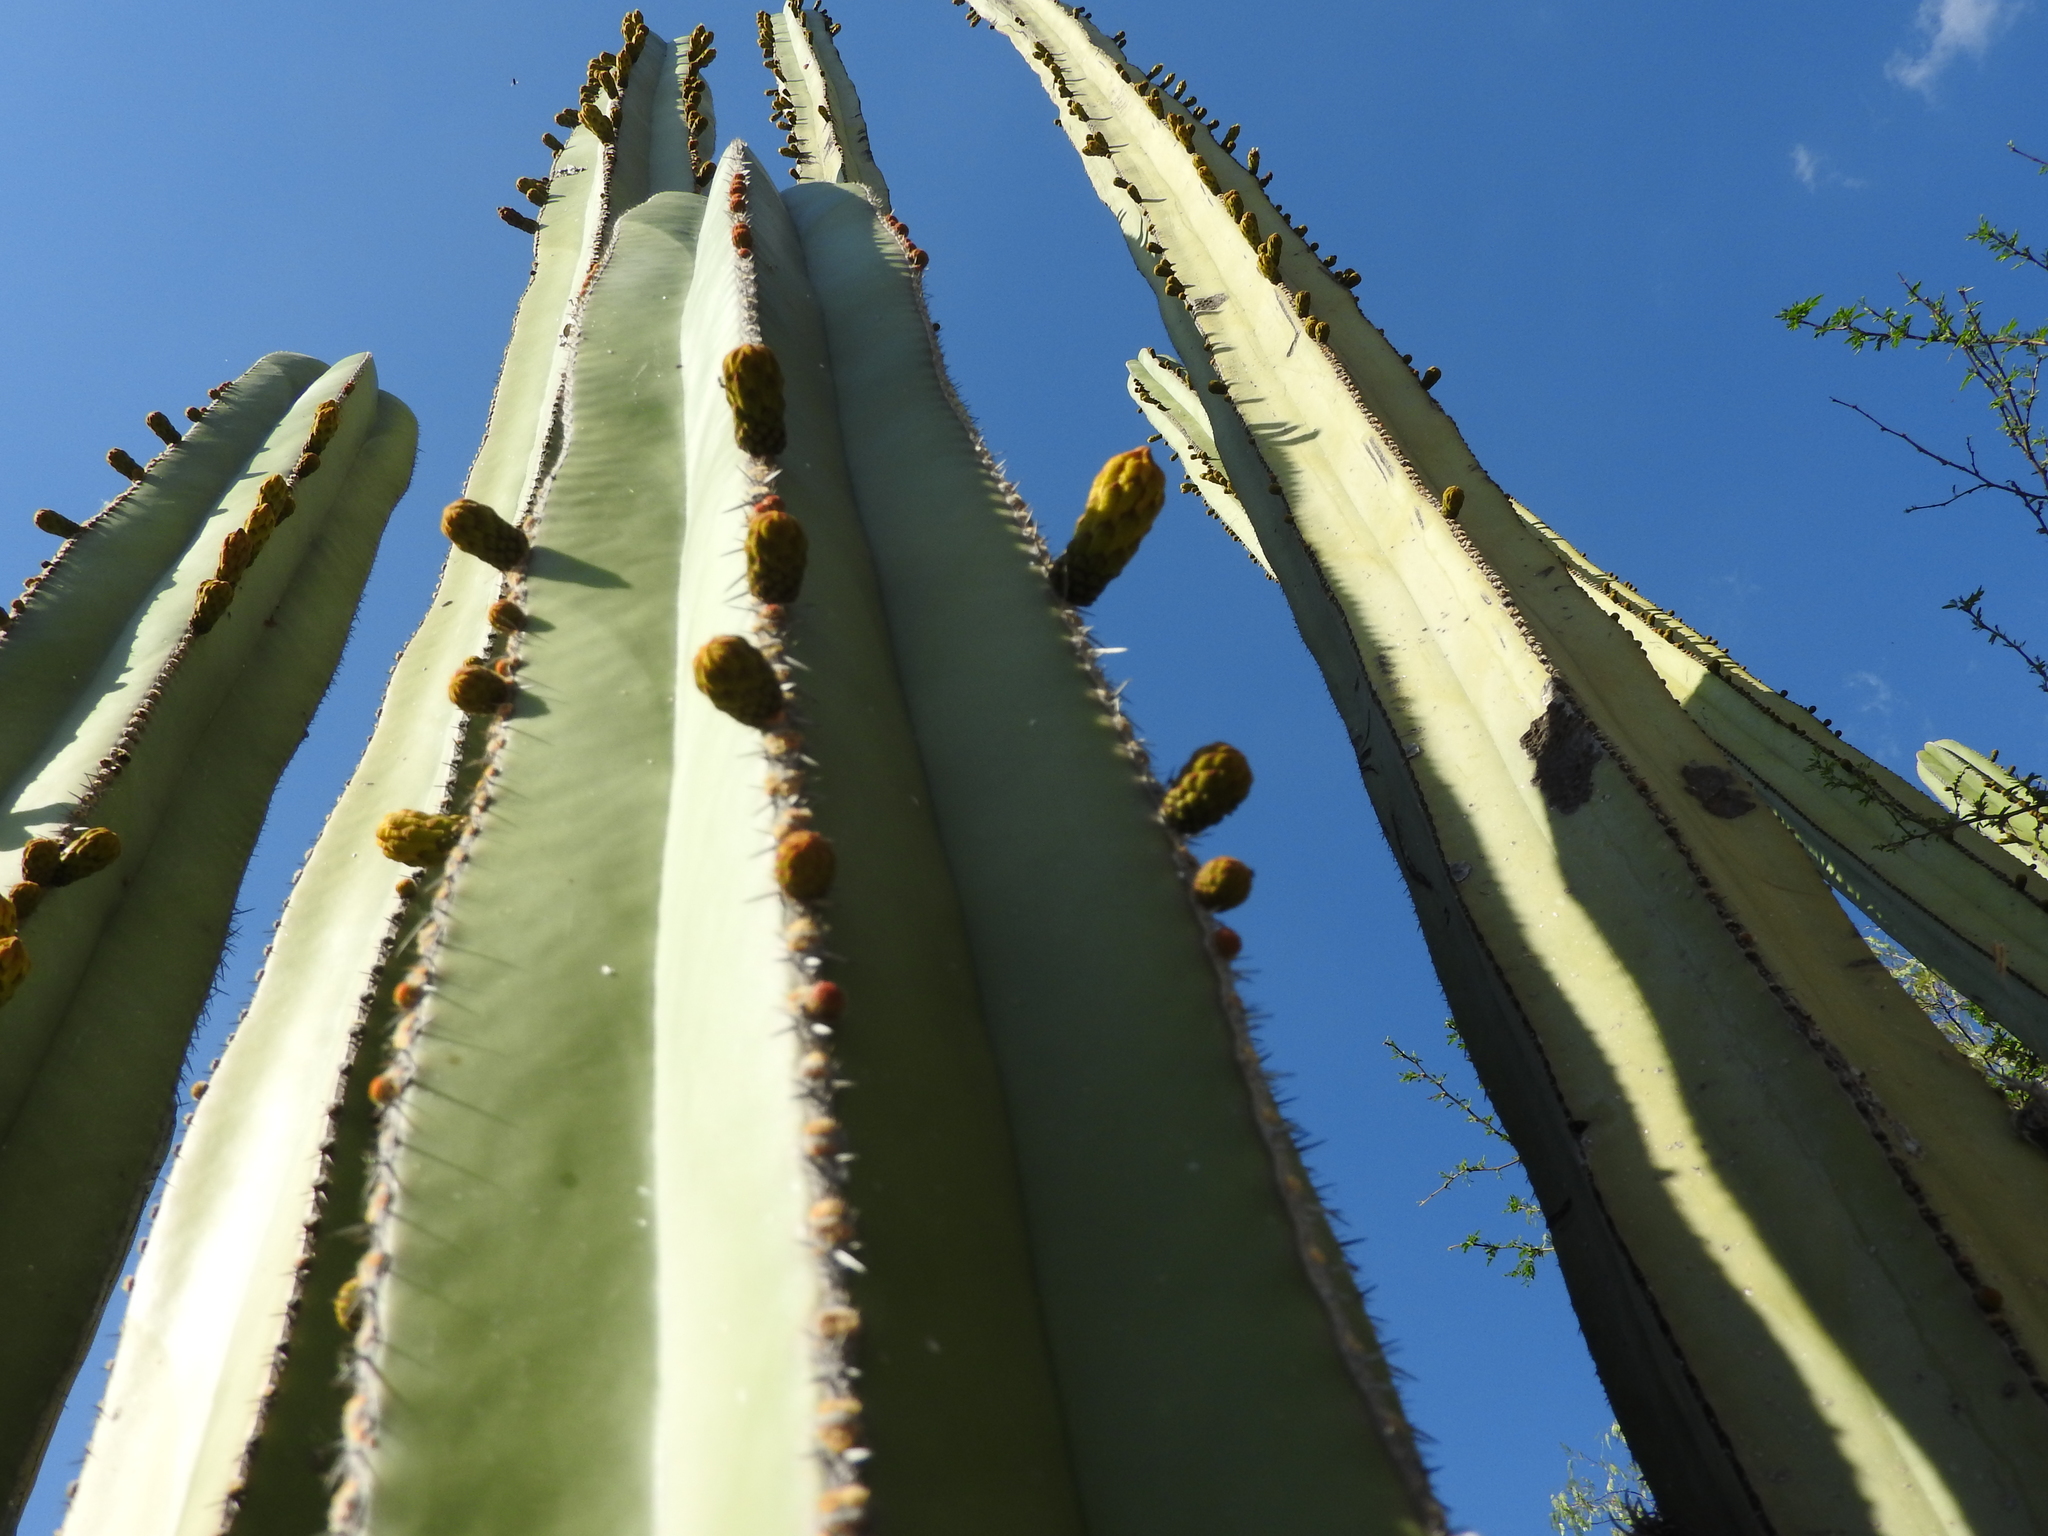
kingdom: Plantae
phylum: Tracheophyta
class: Magnoliopsida
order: Caryophyllales
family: Cactaceae
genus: Marginatocereus
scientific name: Marginatocereus marginatus
